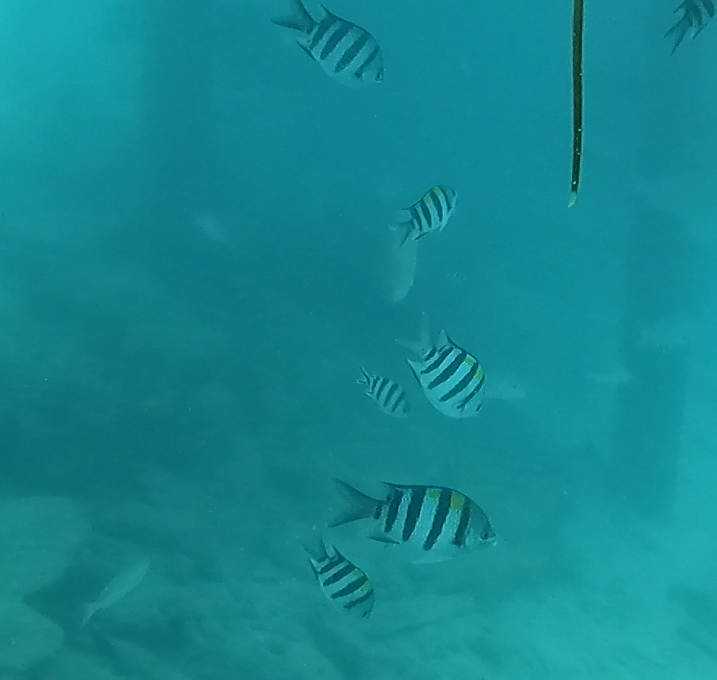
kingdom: Animalia
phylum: Chordata
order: Perciformes
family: Pomacentridae
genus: Abudefduf
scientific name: Abudefduf vaigiensis
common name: Indo-pacific sergeant
